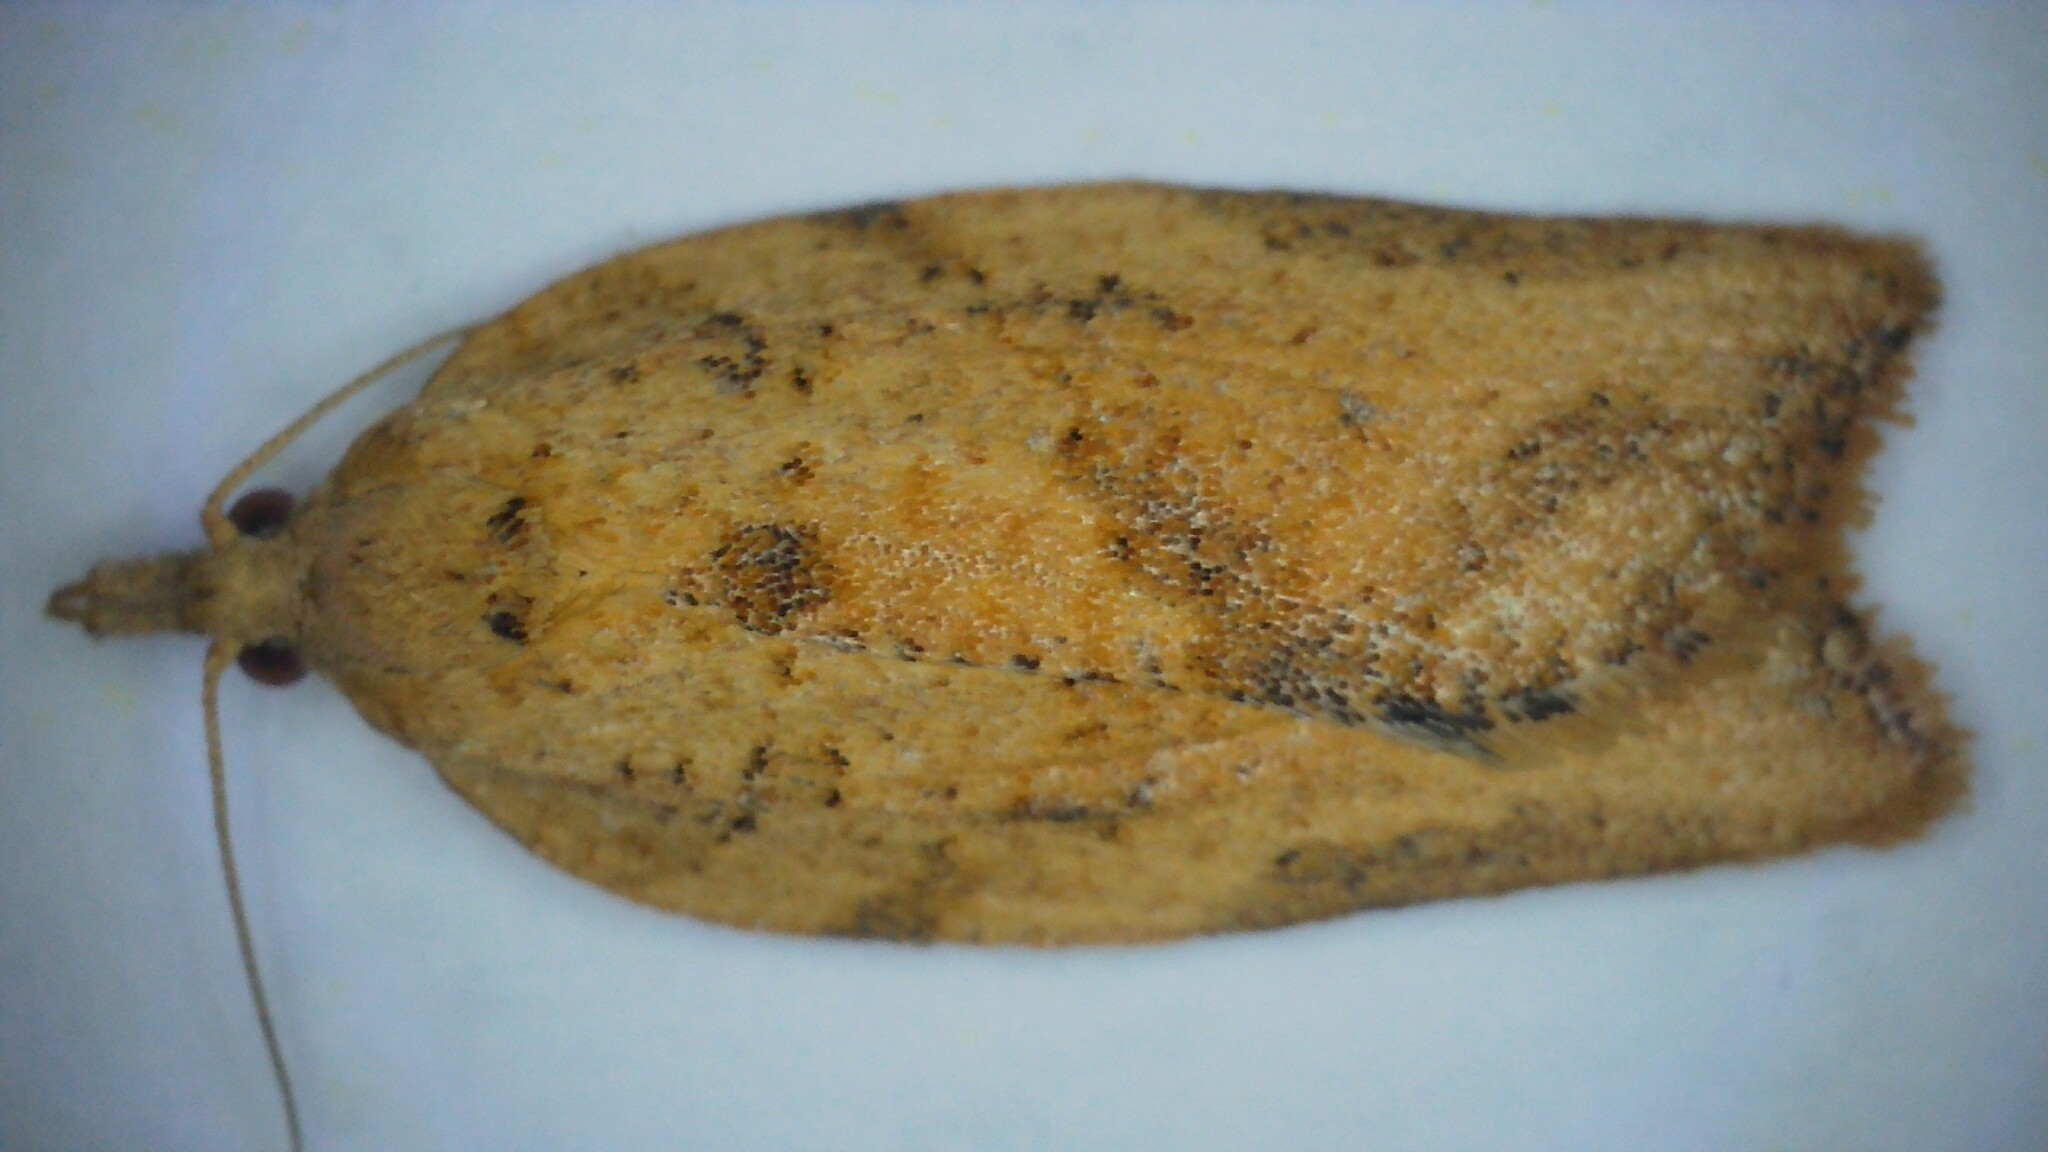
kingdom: Animalia
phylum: Arthropoda
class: Insecta
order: Lepidoptera
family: Tortricidae
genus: Epiphyas
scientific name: Epiphyas postvittana
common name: Light brown apple moth
